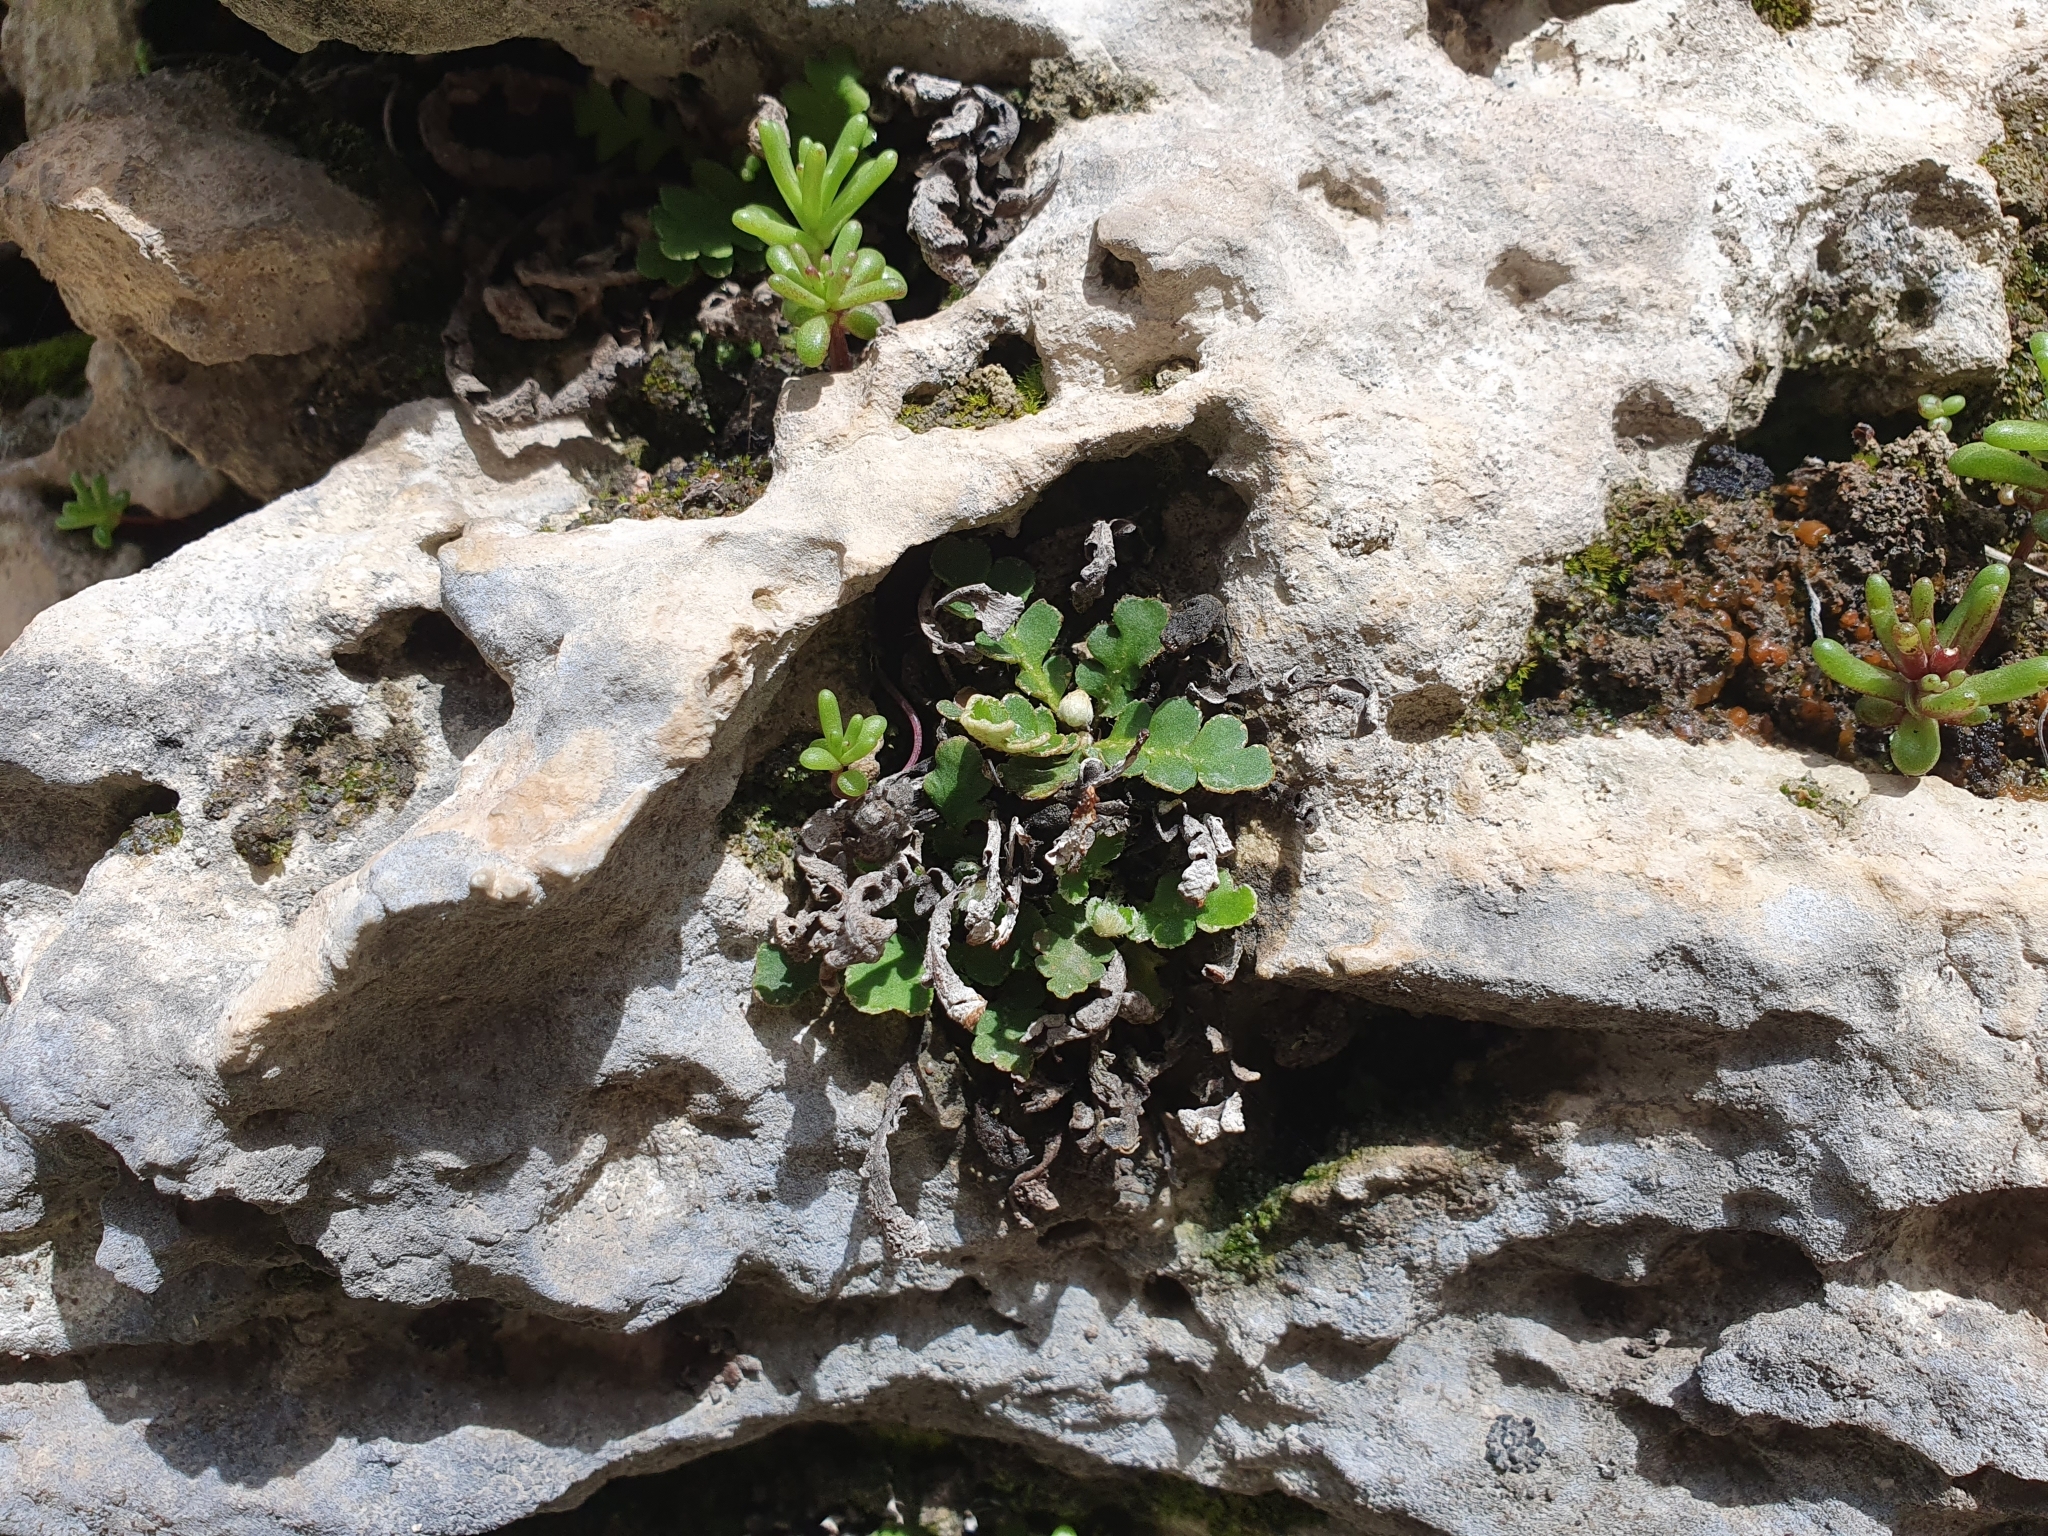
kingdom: Plantae
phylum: Tracheophyta
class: Polypodiopsida
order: Polypodiales
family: Aspleniaceae
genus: Asplenium
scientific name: Asplenium ceterach
